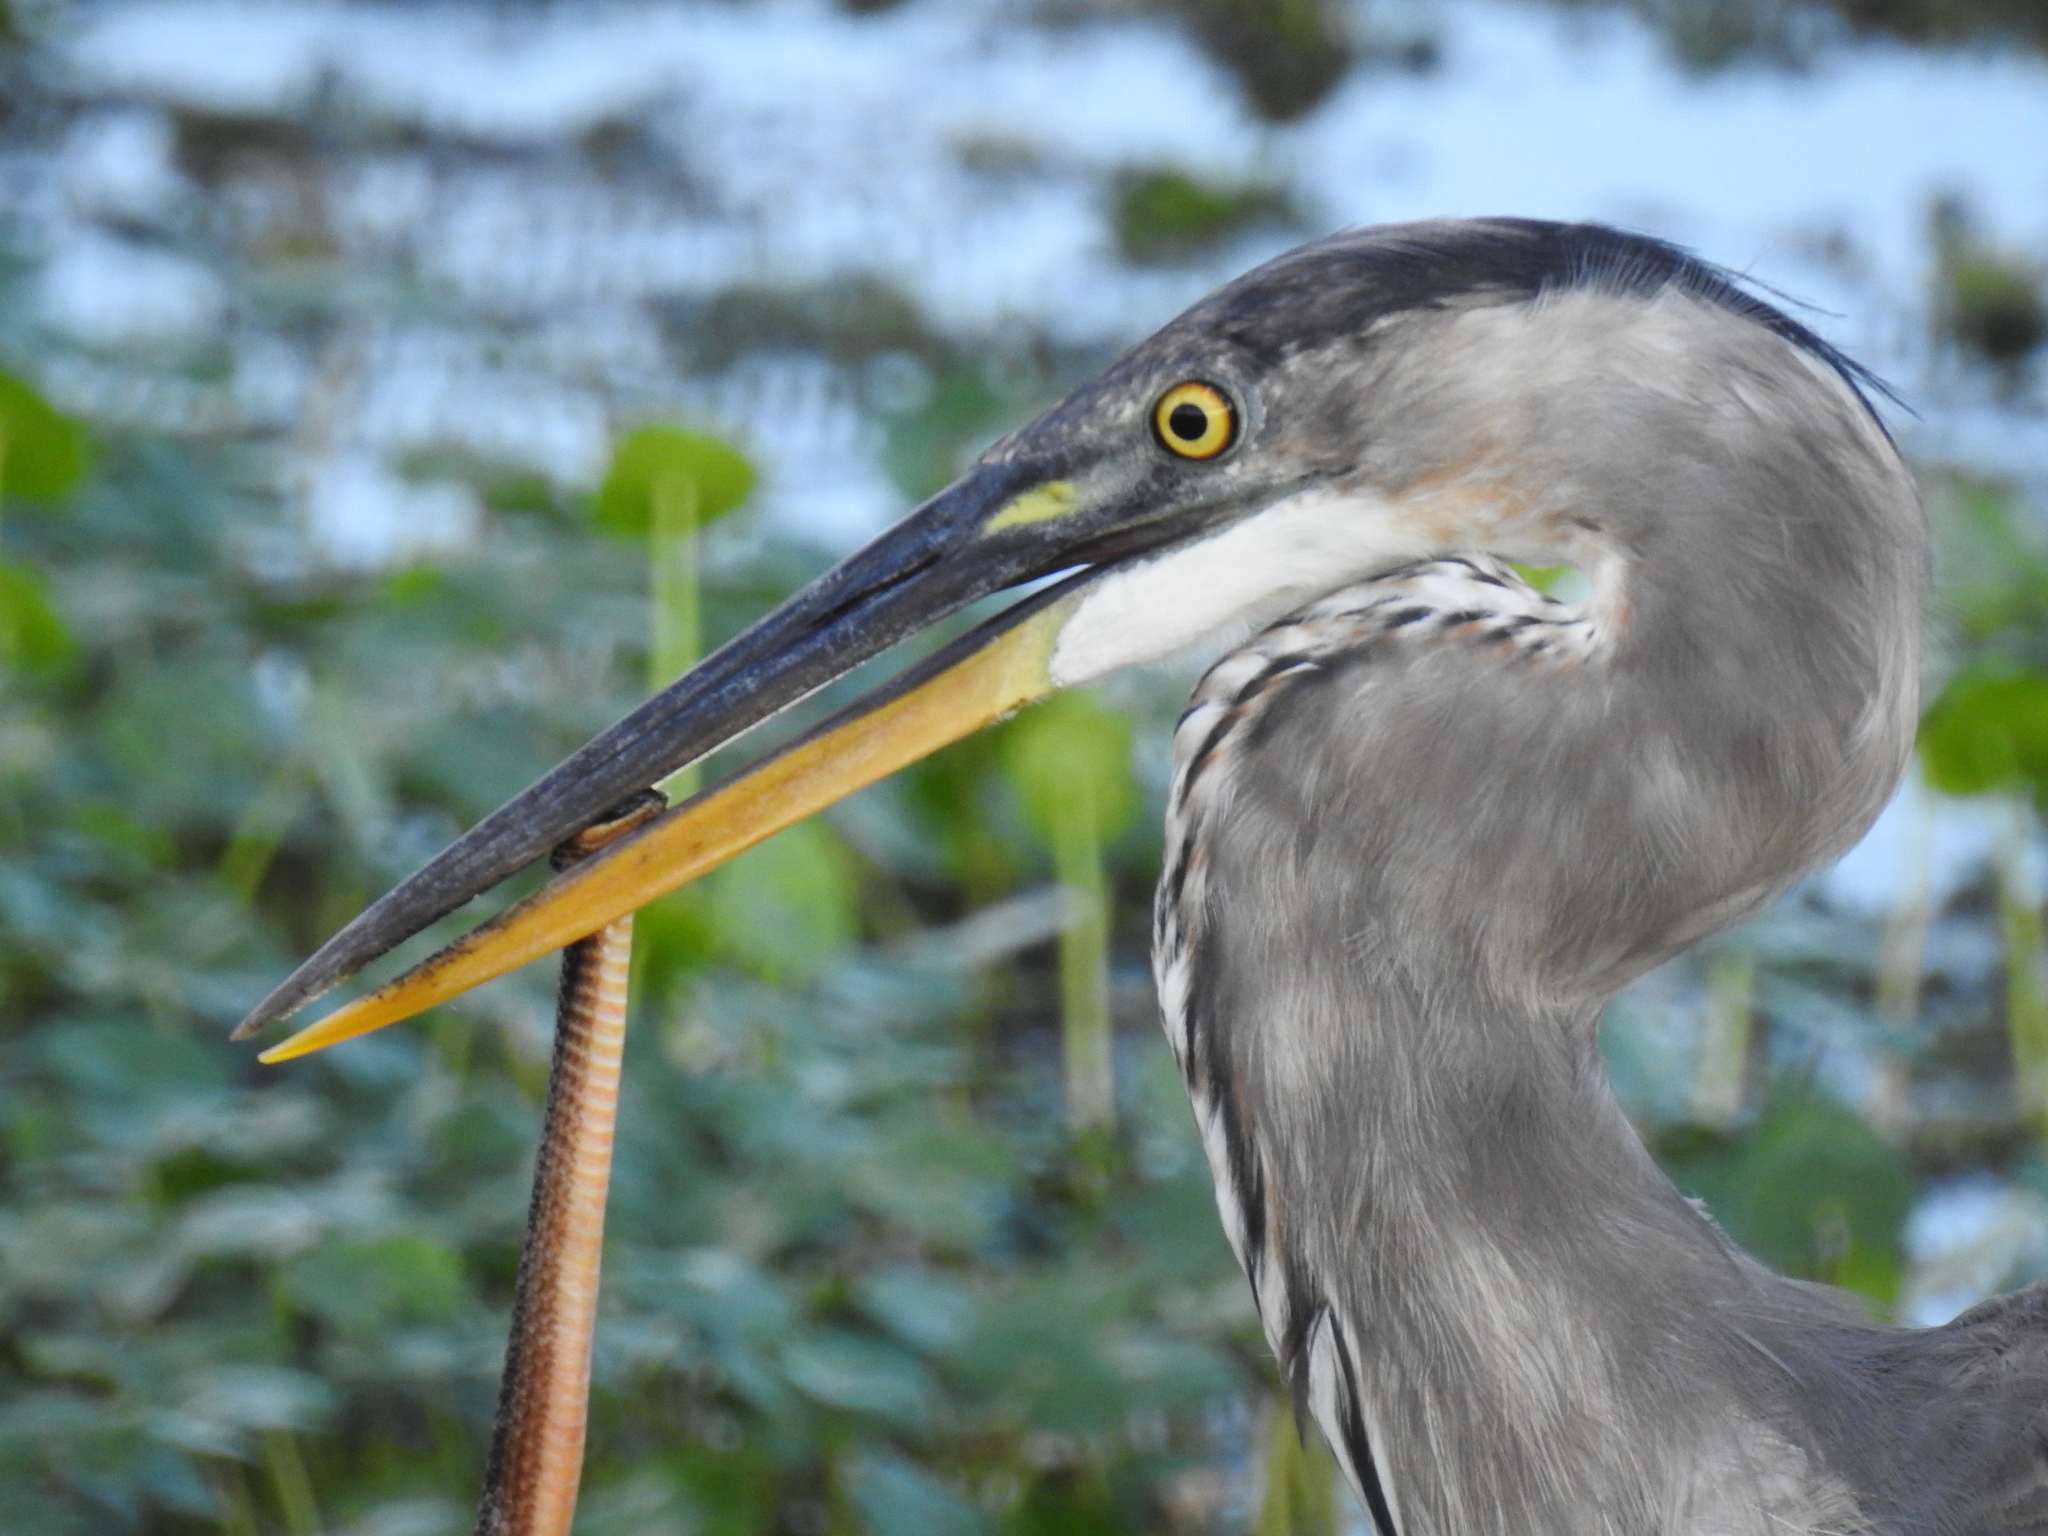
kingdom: Animalia
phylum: Chordata
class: Aves
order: Pelecaniformes
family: Ardeidae
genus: Ardea
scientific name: Ardea herodias
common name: Great blue heron
